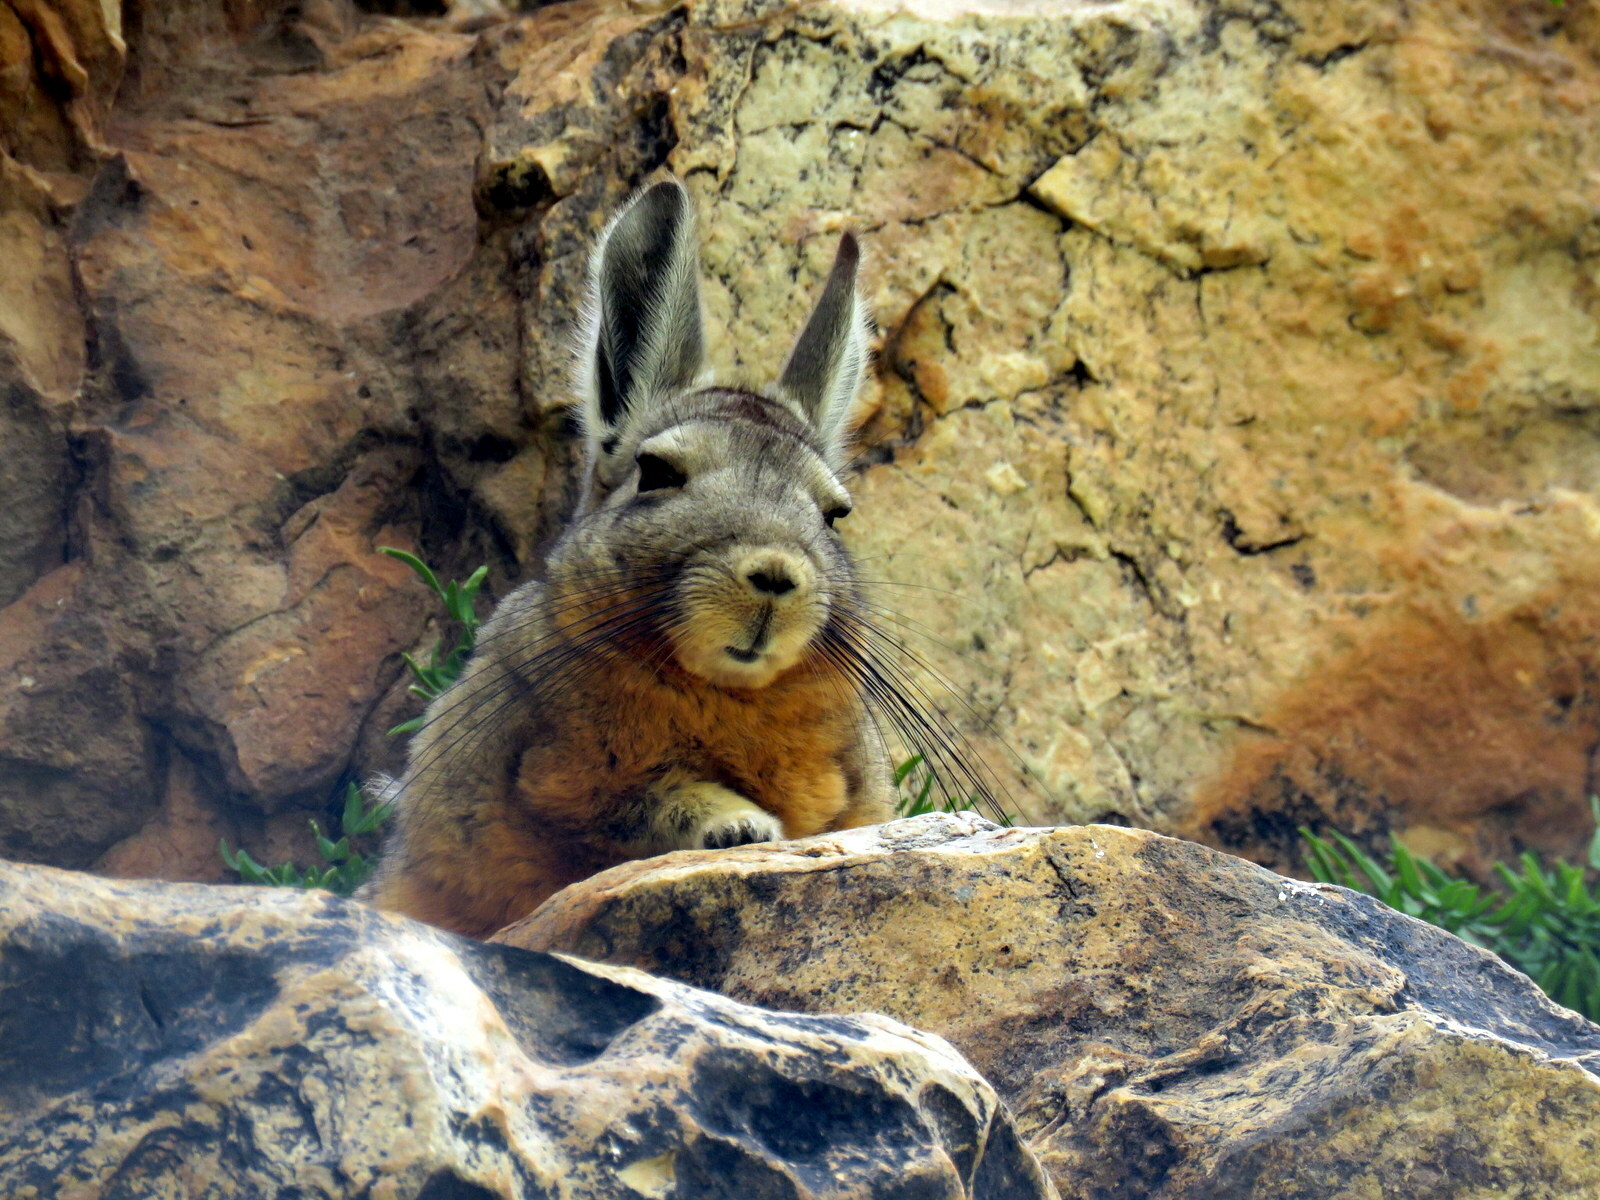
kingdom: Animalia
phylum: Chordata
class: Mammalia
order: Rodentia
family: Chinchillidae
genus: Lagidium
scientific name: Lagidium viscacia
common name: Southern viscacha
